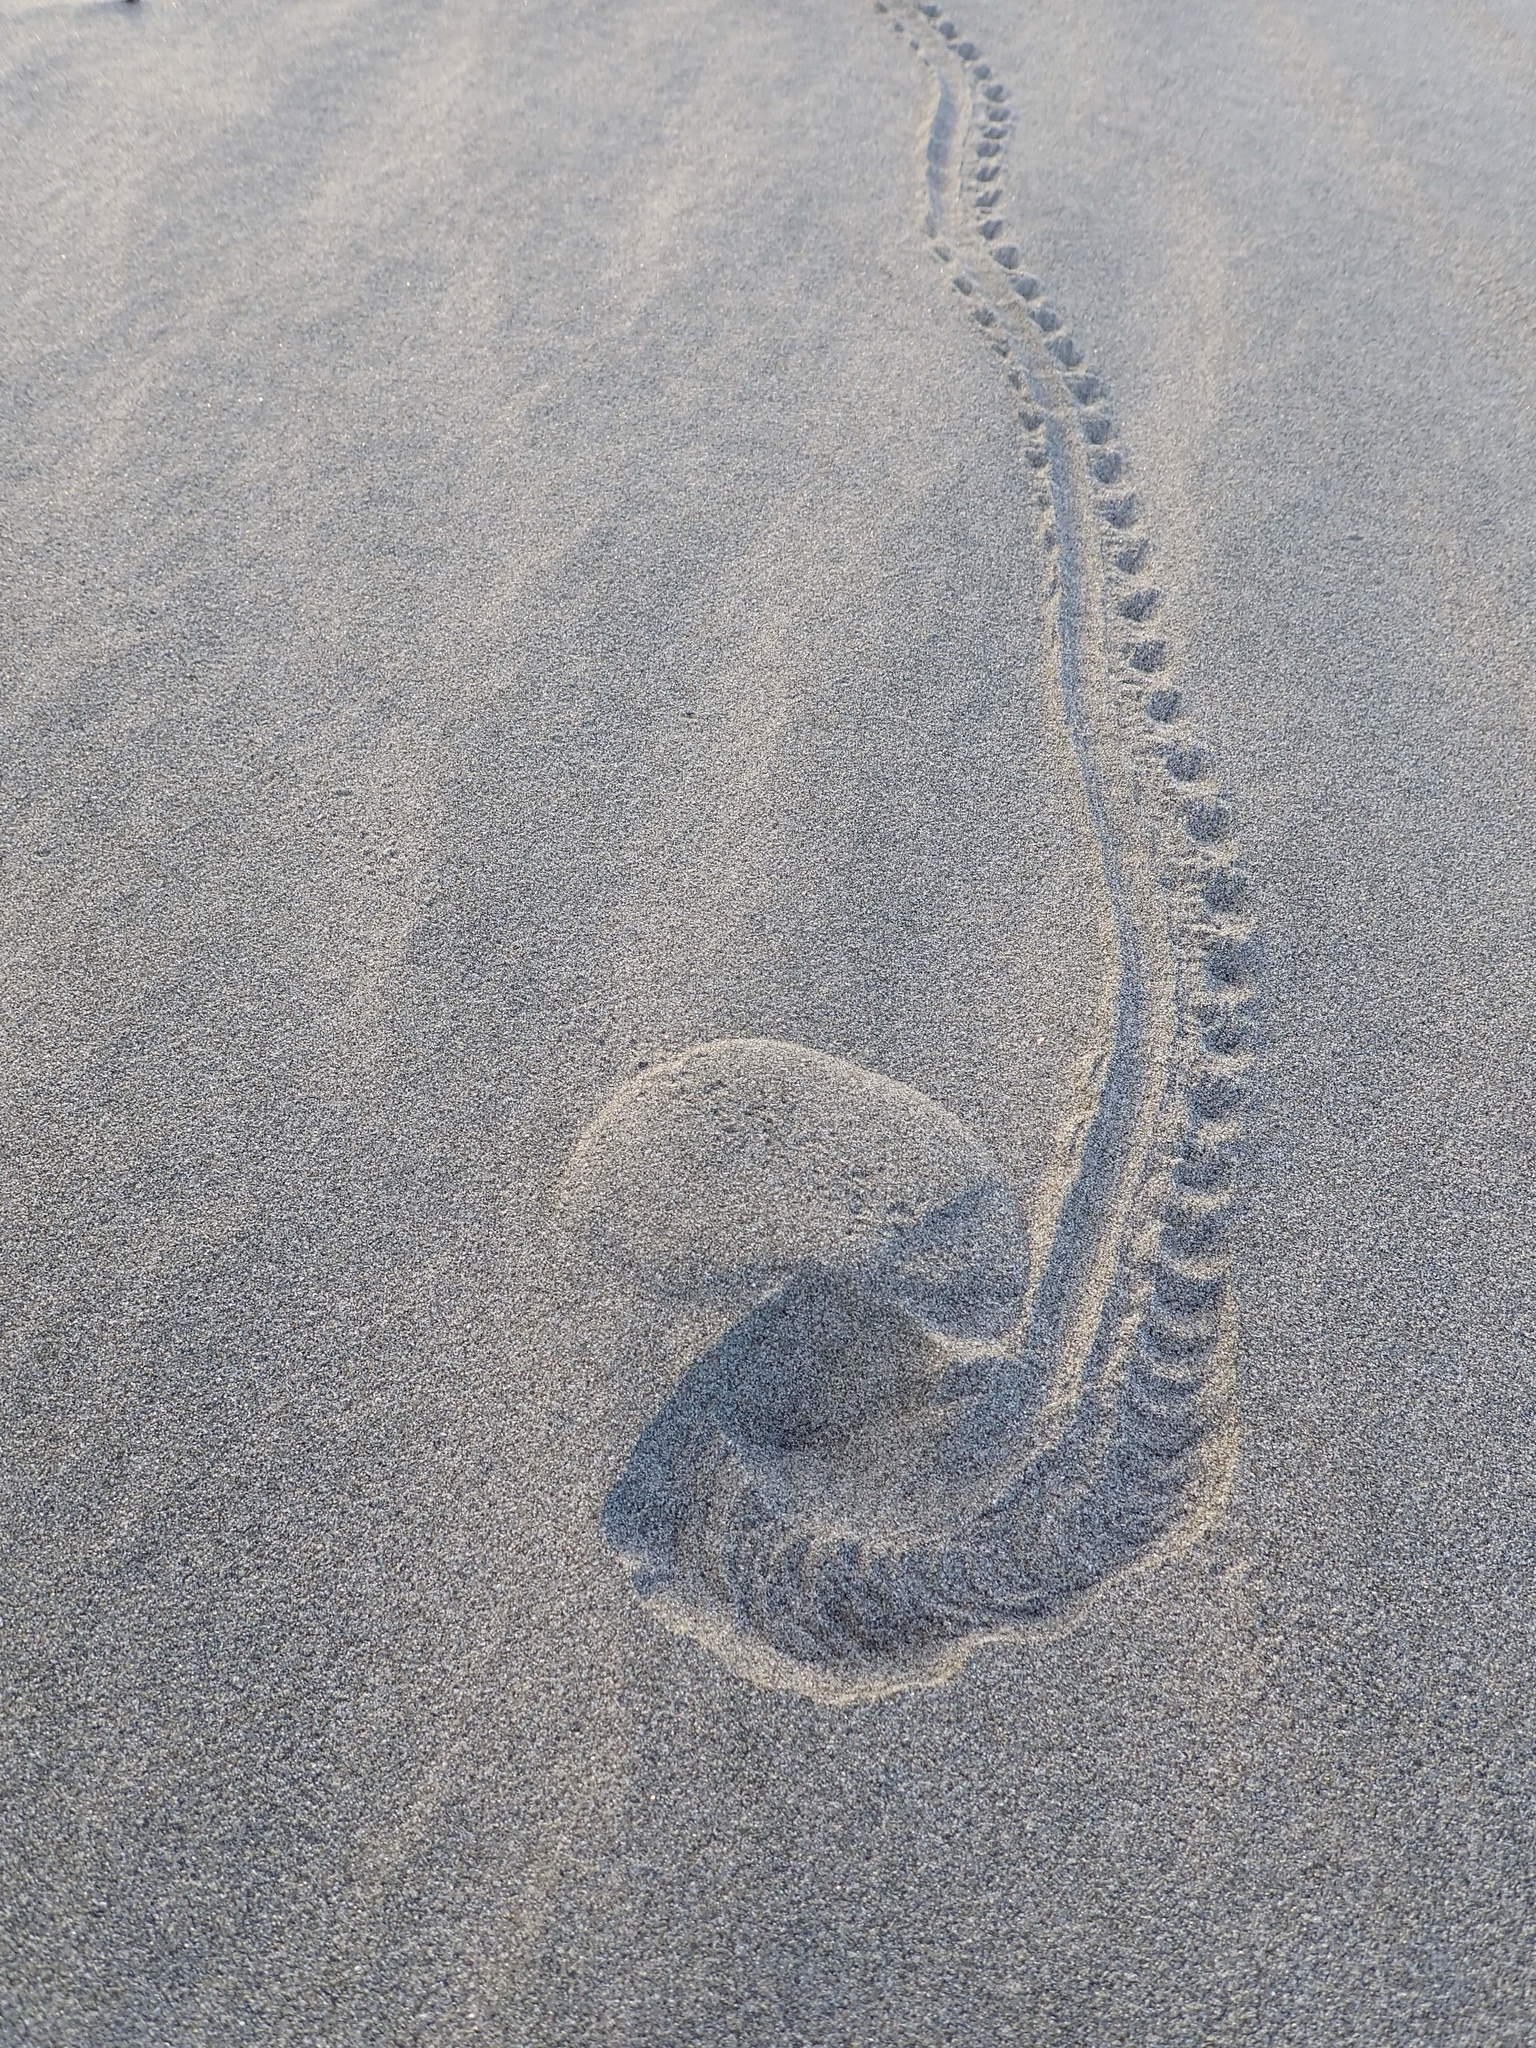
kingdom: Animalia
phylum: Arthropoda
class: Insecta
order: Coleoptera
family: Scarabaeidae
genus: Pericoptus
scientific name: Pericoptus truncatus
